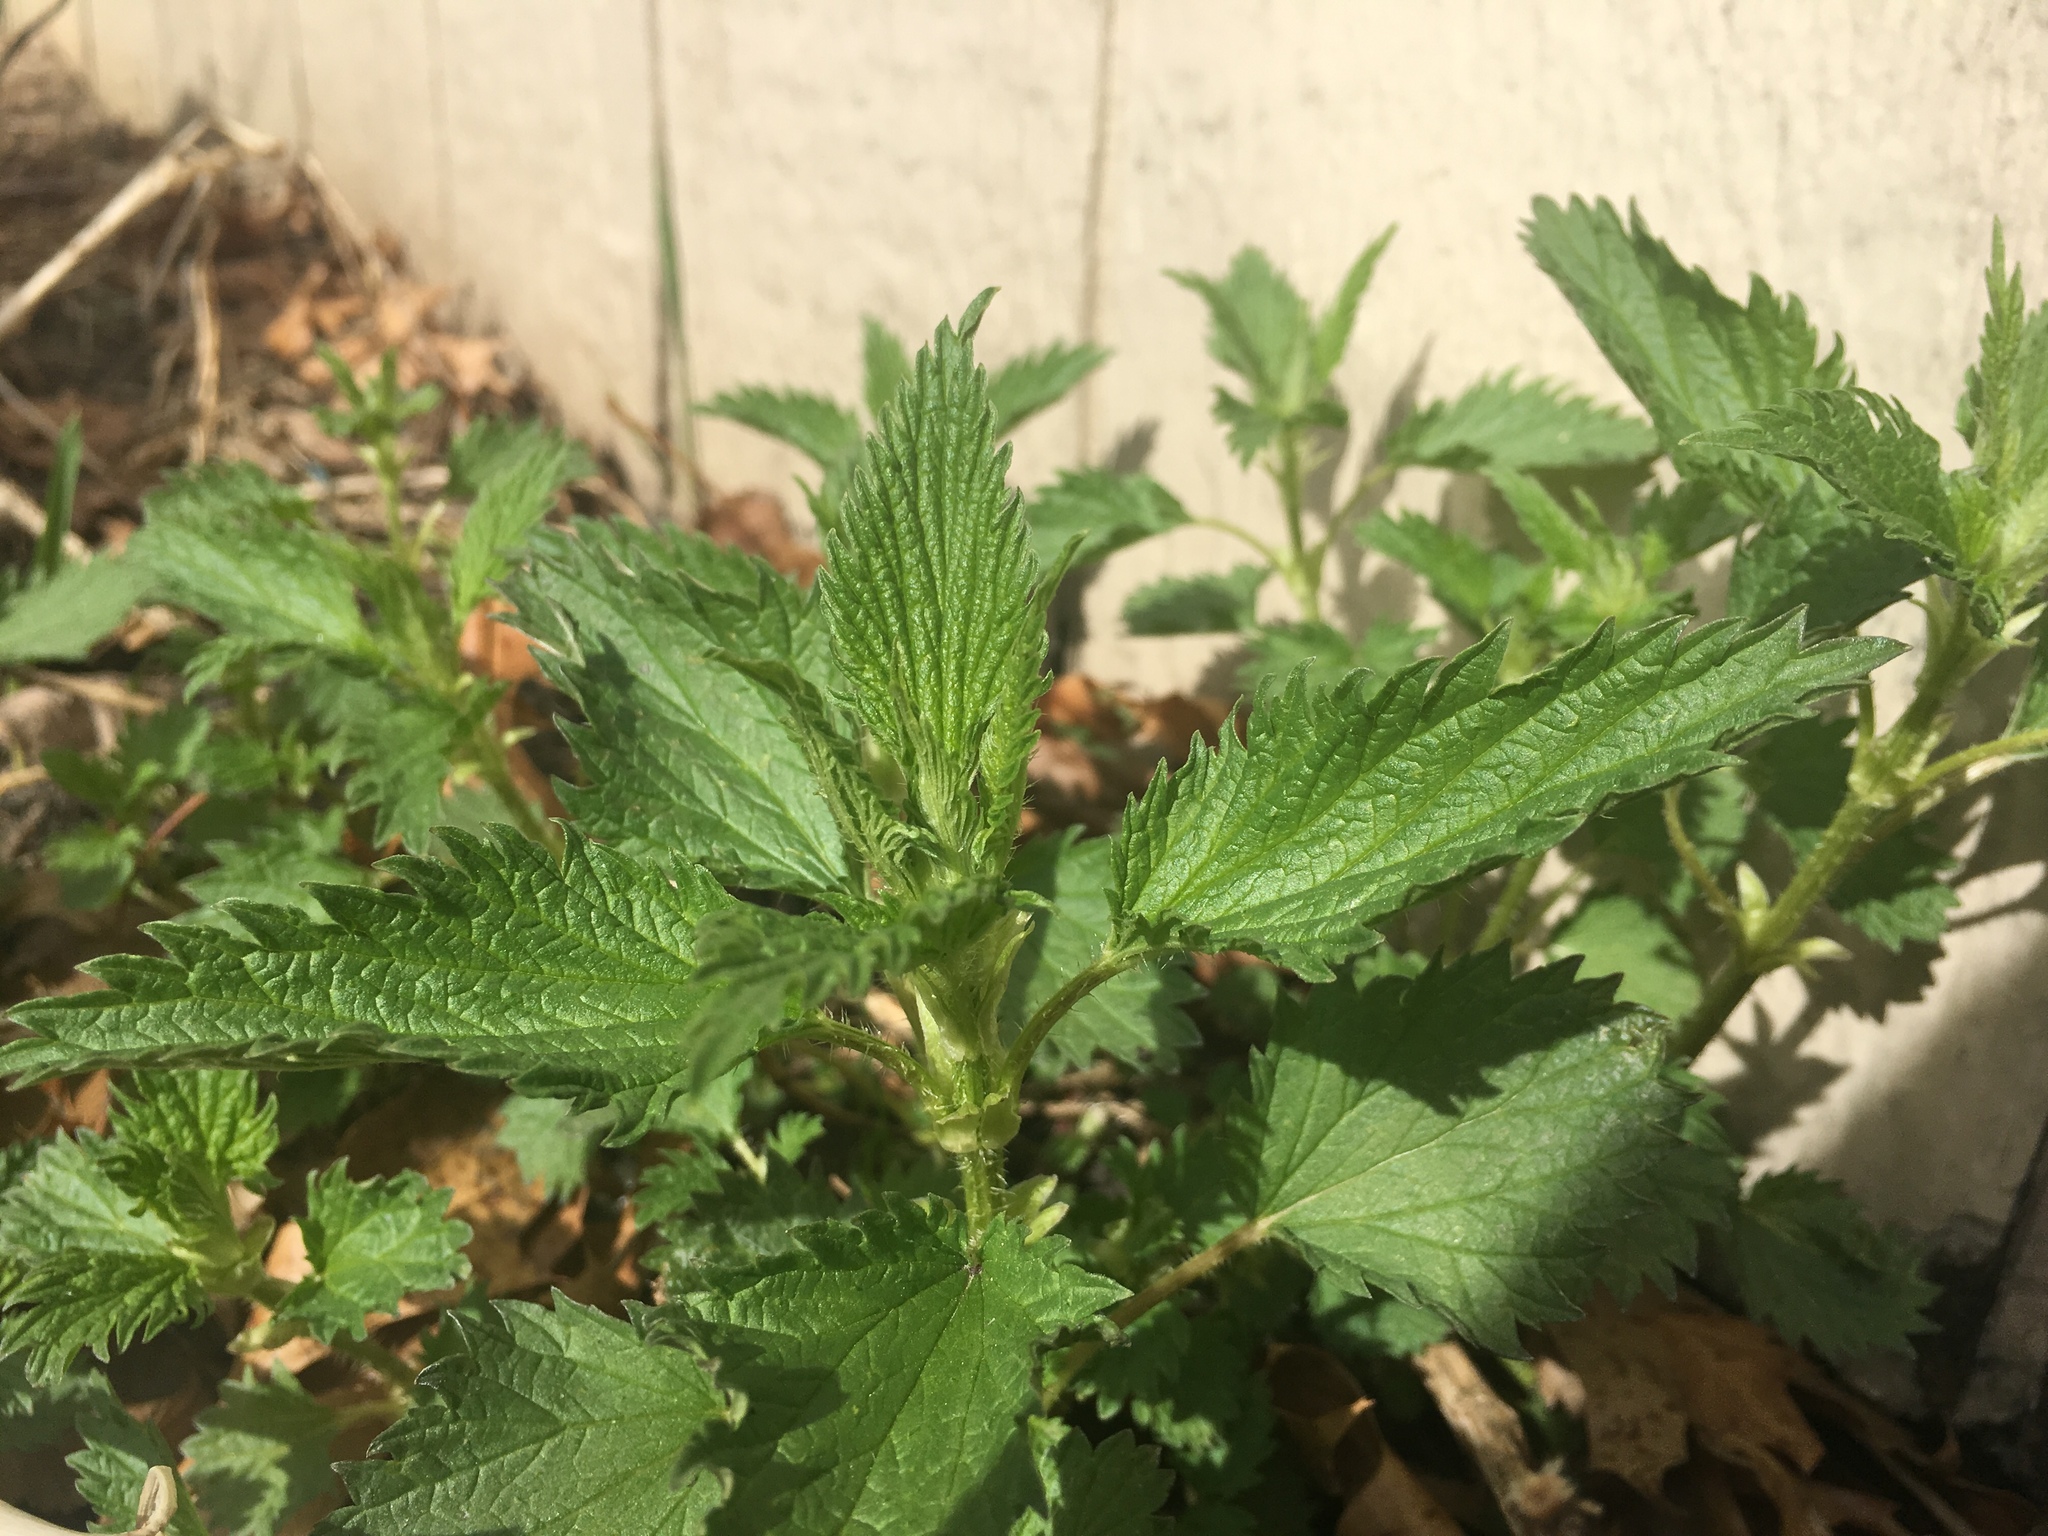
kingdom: Plantae
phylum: Tracheophyta
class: Magnoliopsida
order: Rosales
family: Urticaceae
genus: Urtica
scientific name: Urtica dioica
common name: Common nettle
